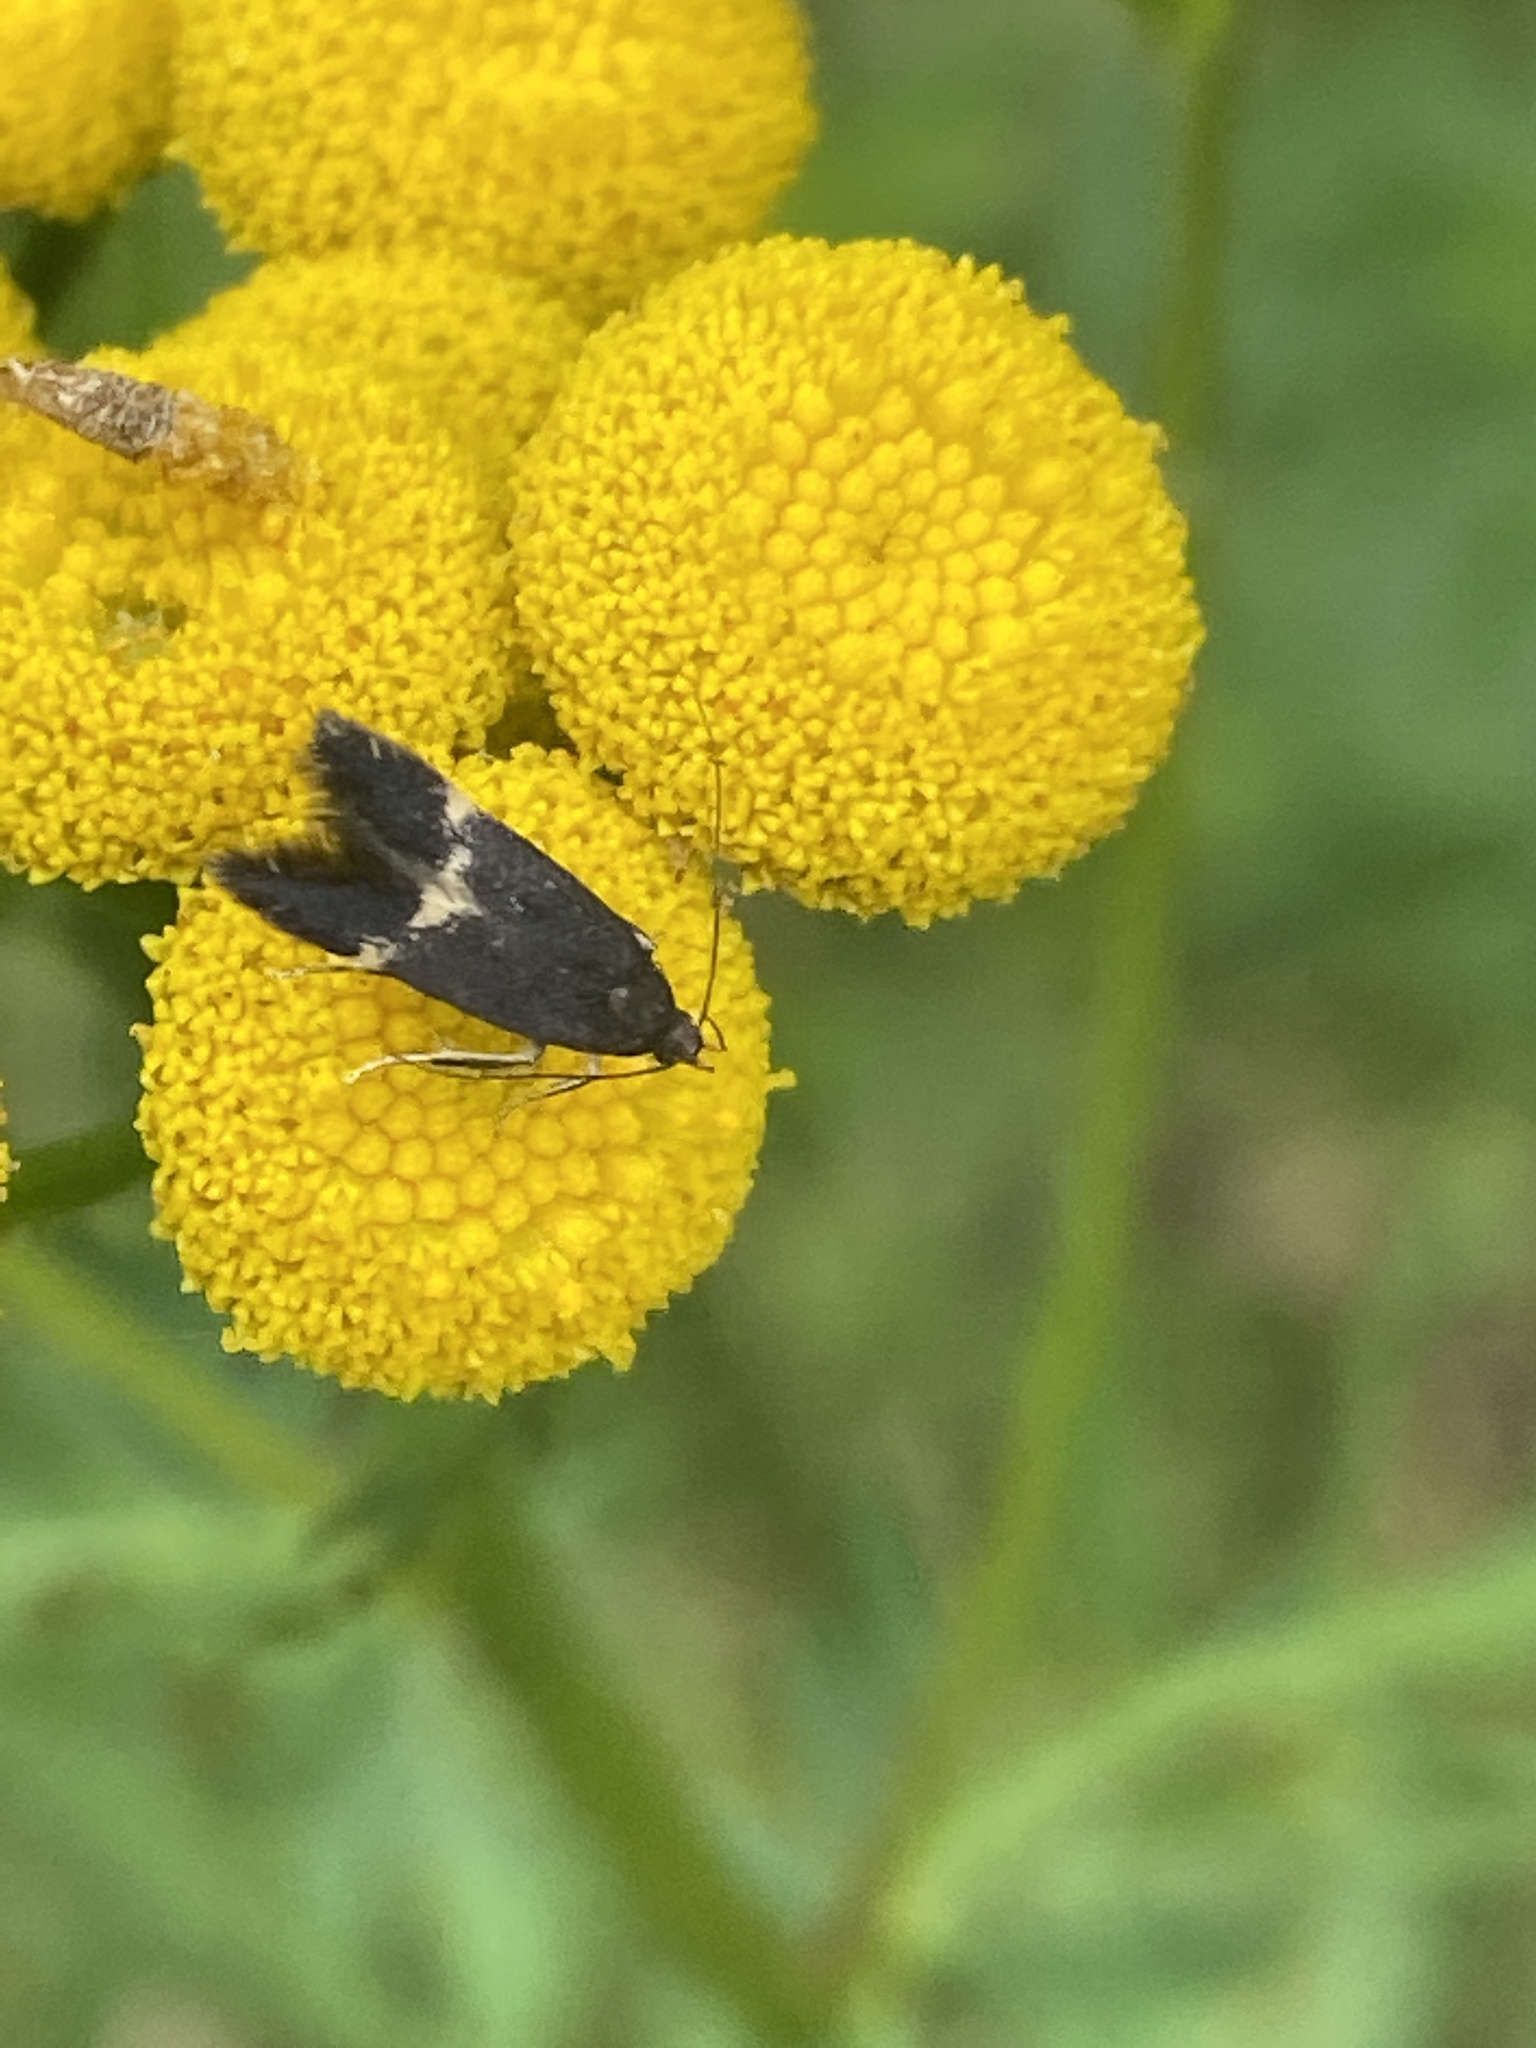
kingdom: Animalia
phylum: Arthropoda
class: Insecta
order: Lepidoptera
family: Coleophoridae
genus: Coleophora
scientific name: Coleophora tanaceti
